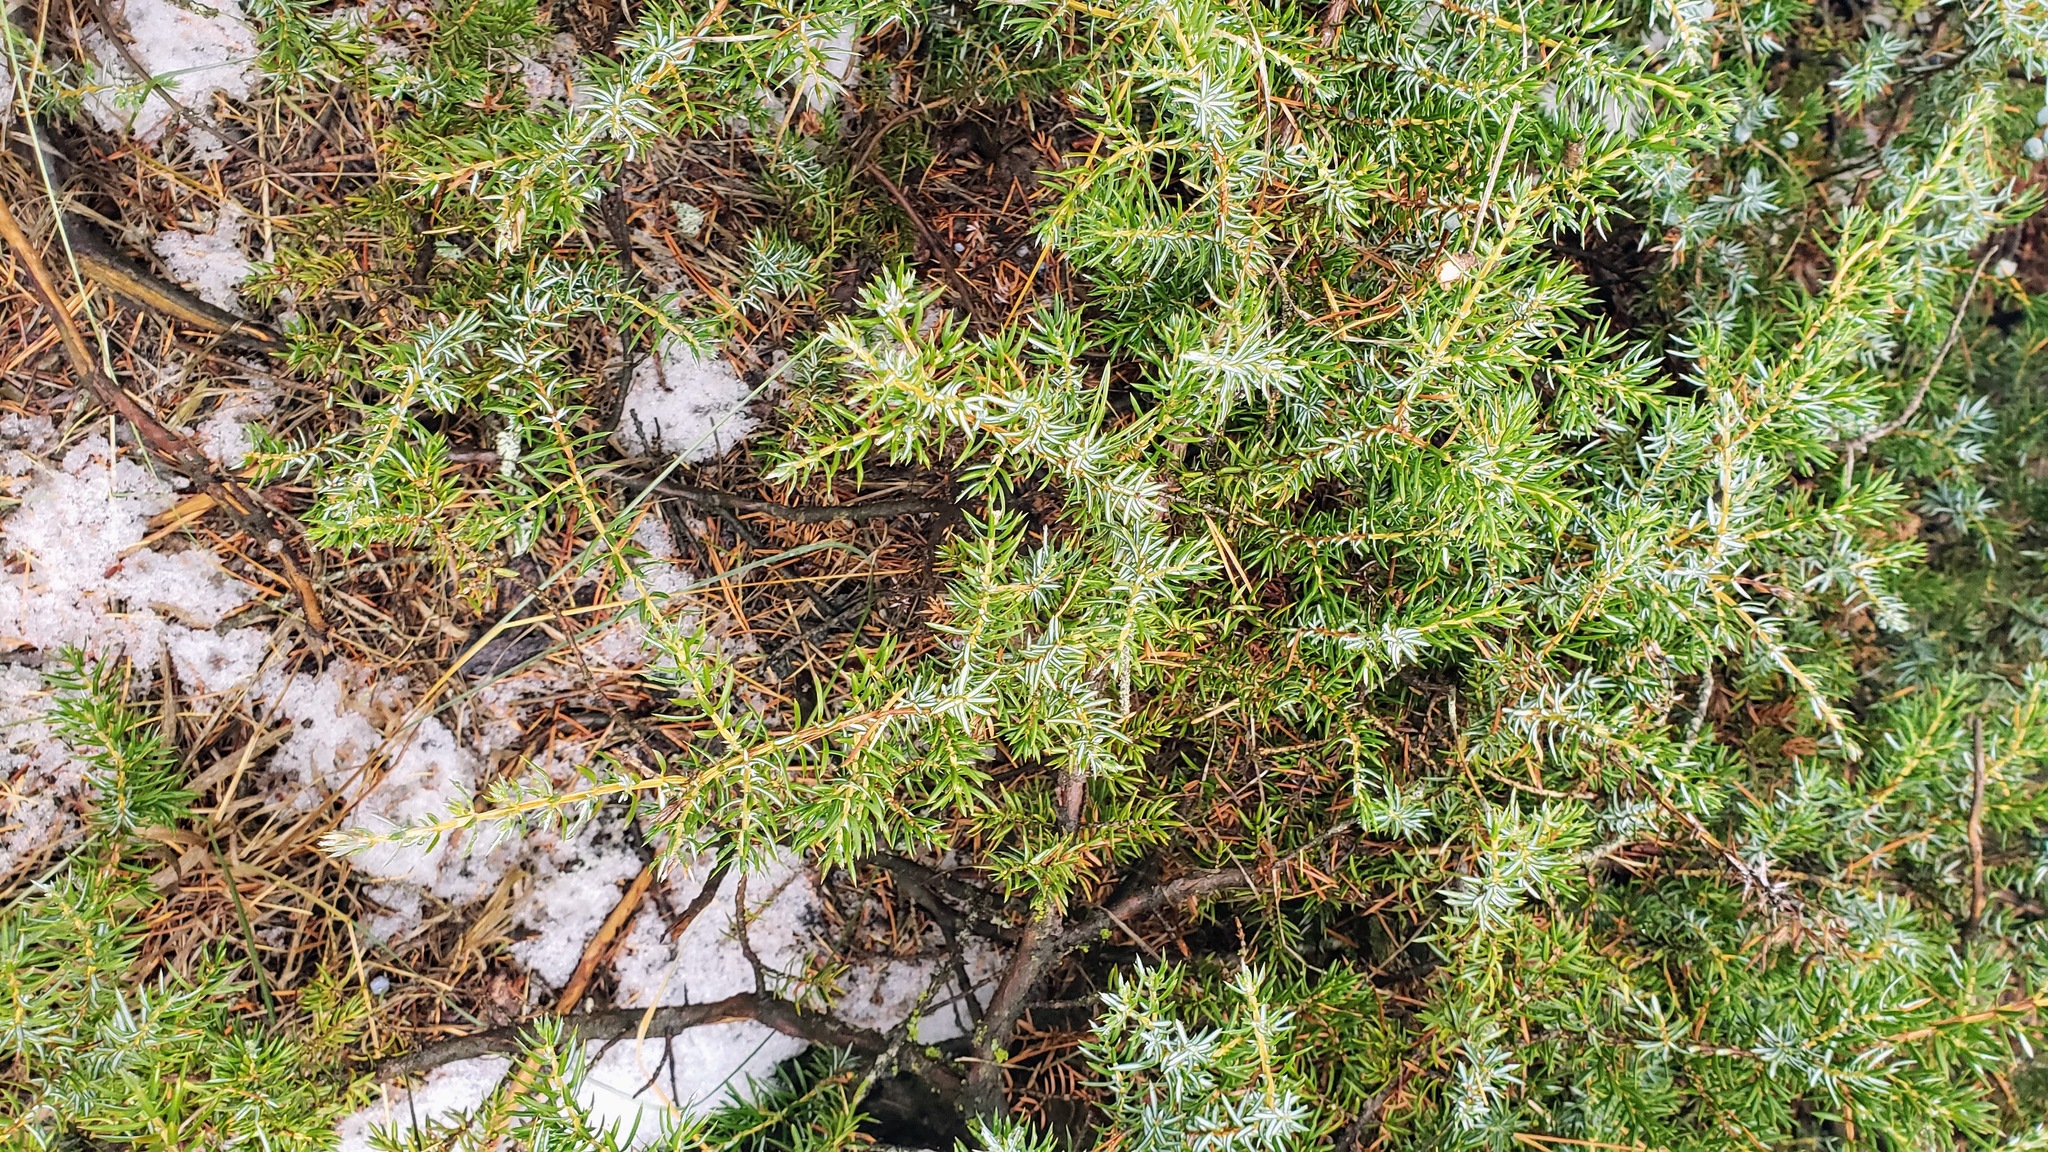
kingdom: Plantae
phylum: Tracheophyta
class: Pinopsida
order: Pinales
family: Cupressaceae
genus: Juniperus
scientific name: Juniperus communis
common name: Common juniper
